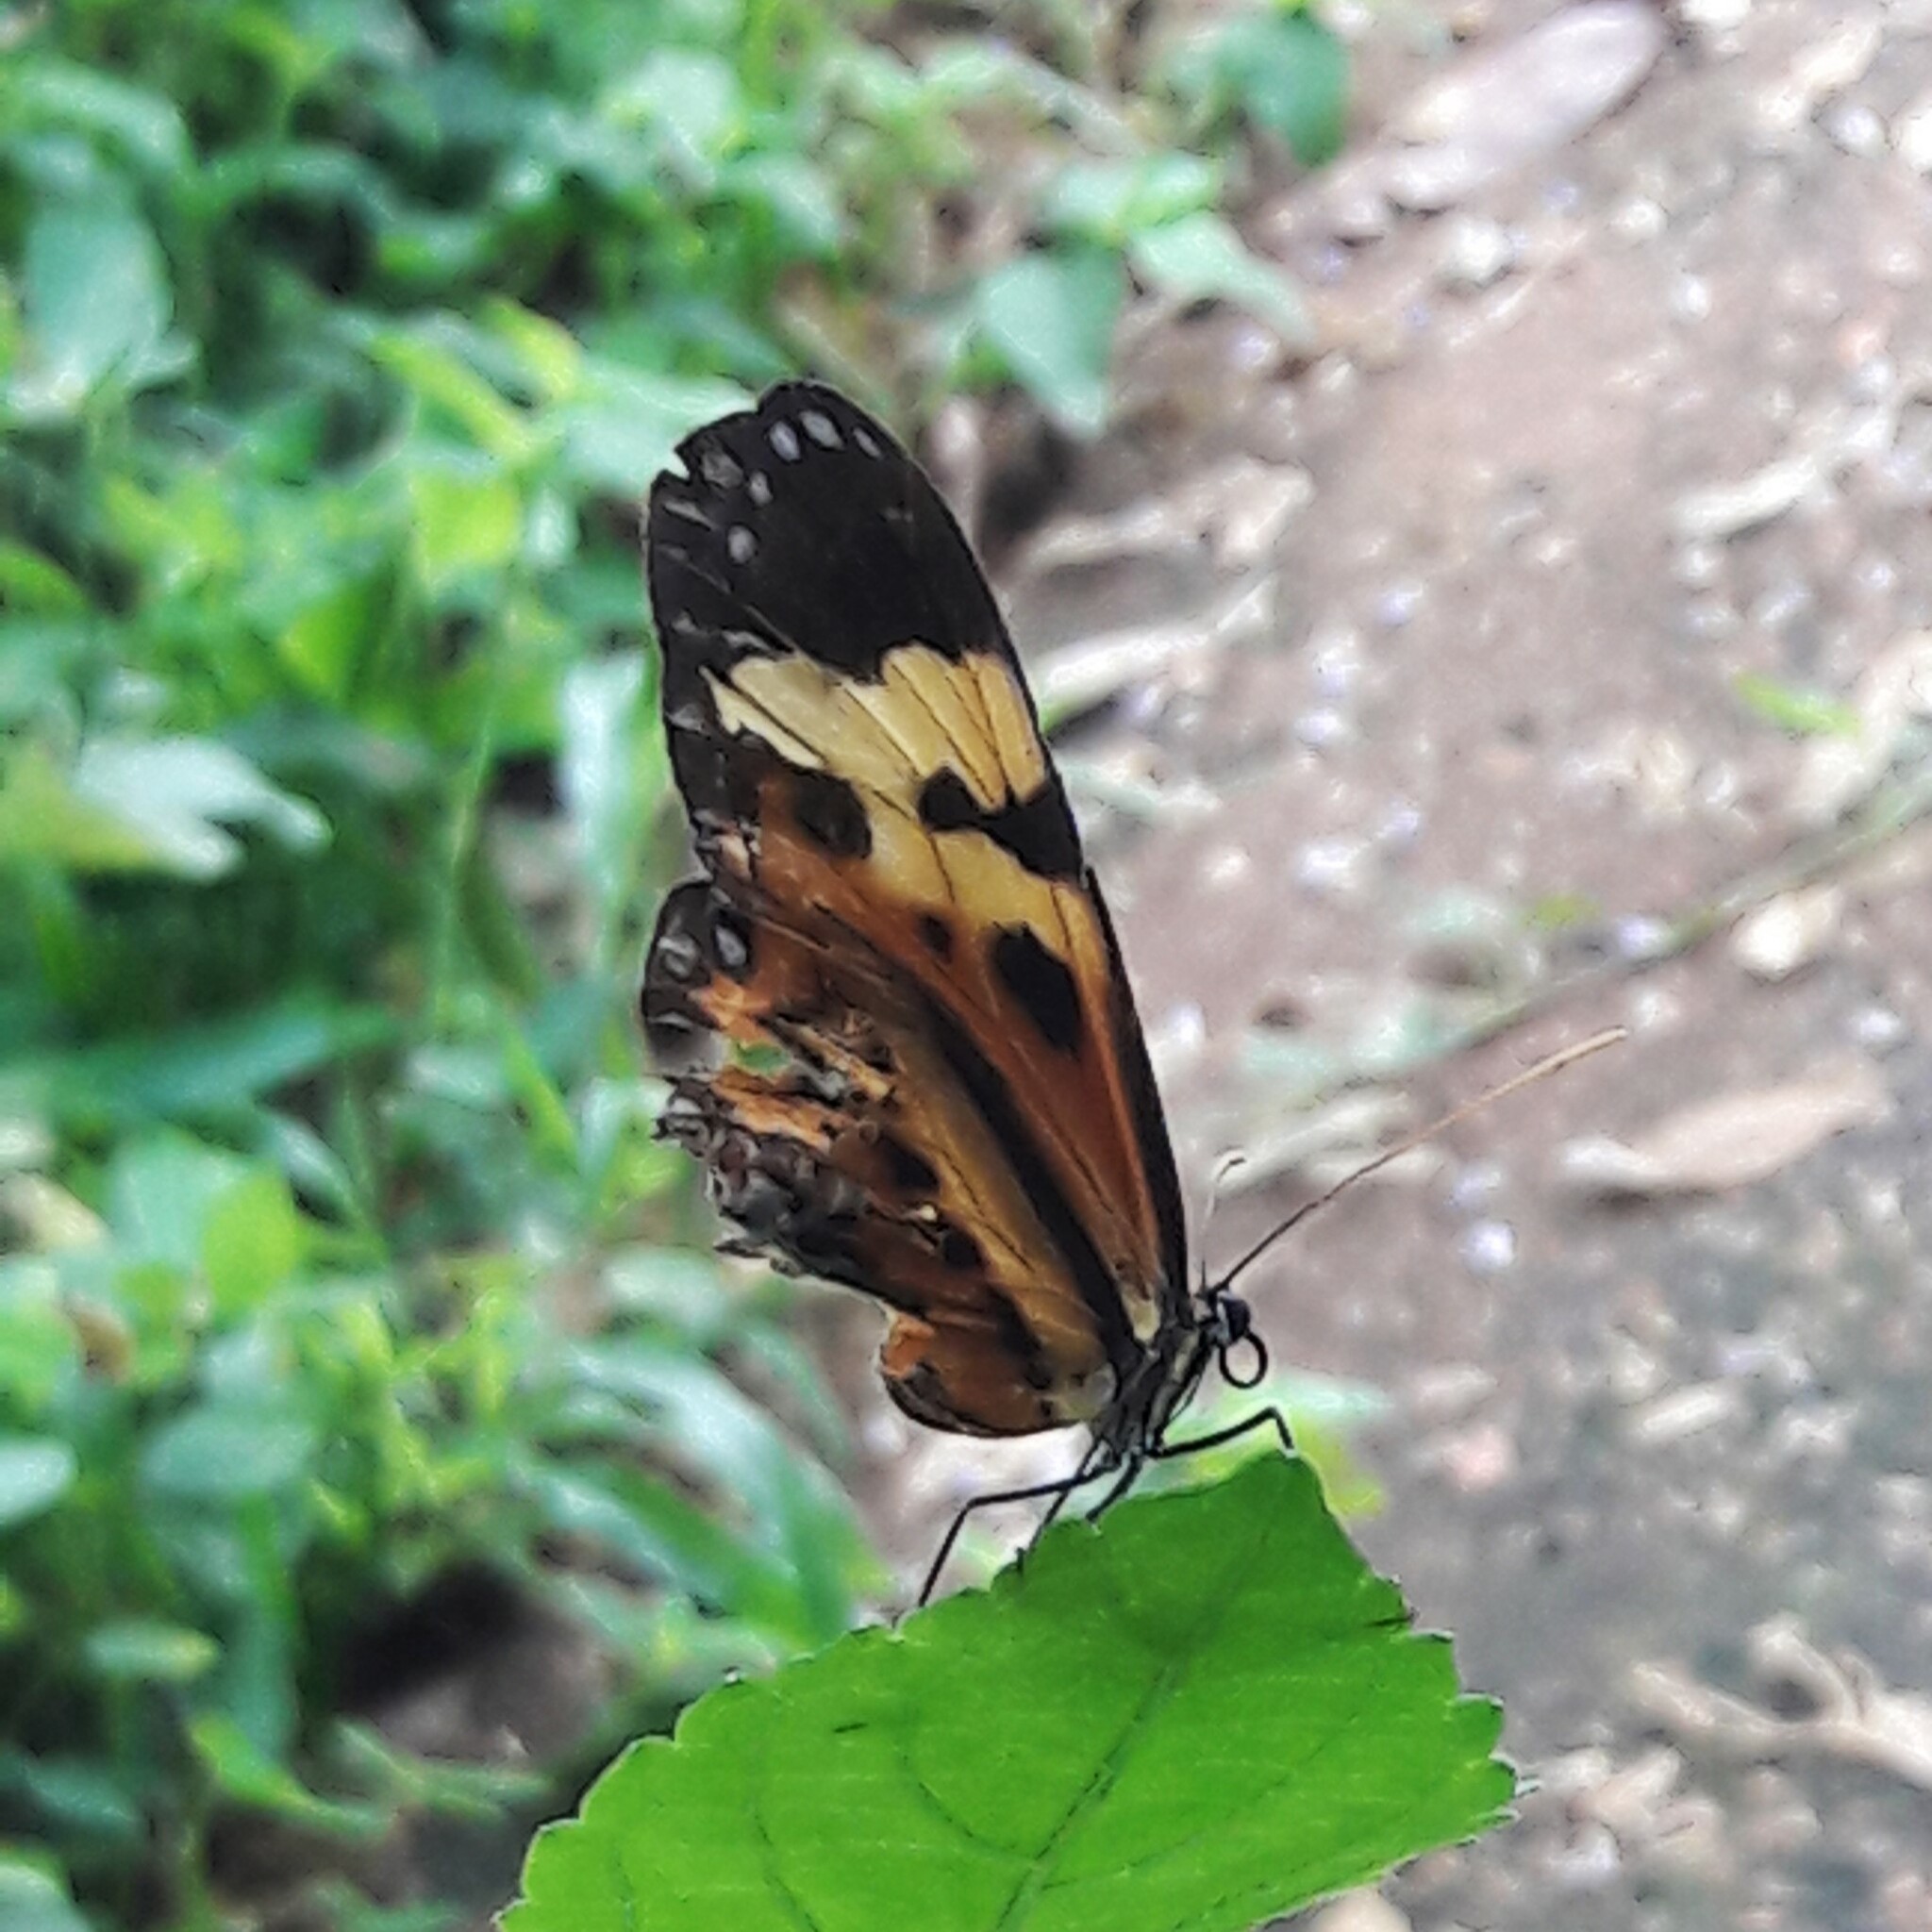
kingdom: Animalia
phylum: Arthropoda
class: Insecta
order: Lepidoptera
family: Nymphalidae
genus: Mechanitis
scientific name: Mechanitis polymnia
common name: Disturbed tigerwing
